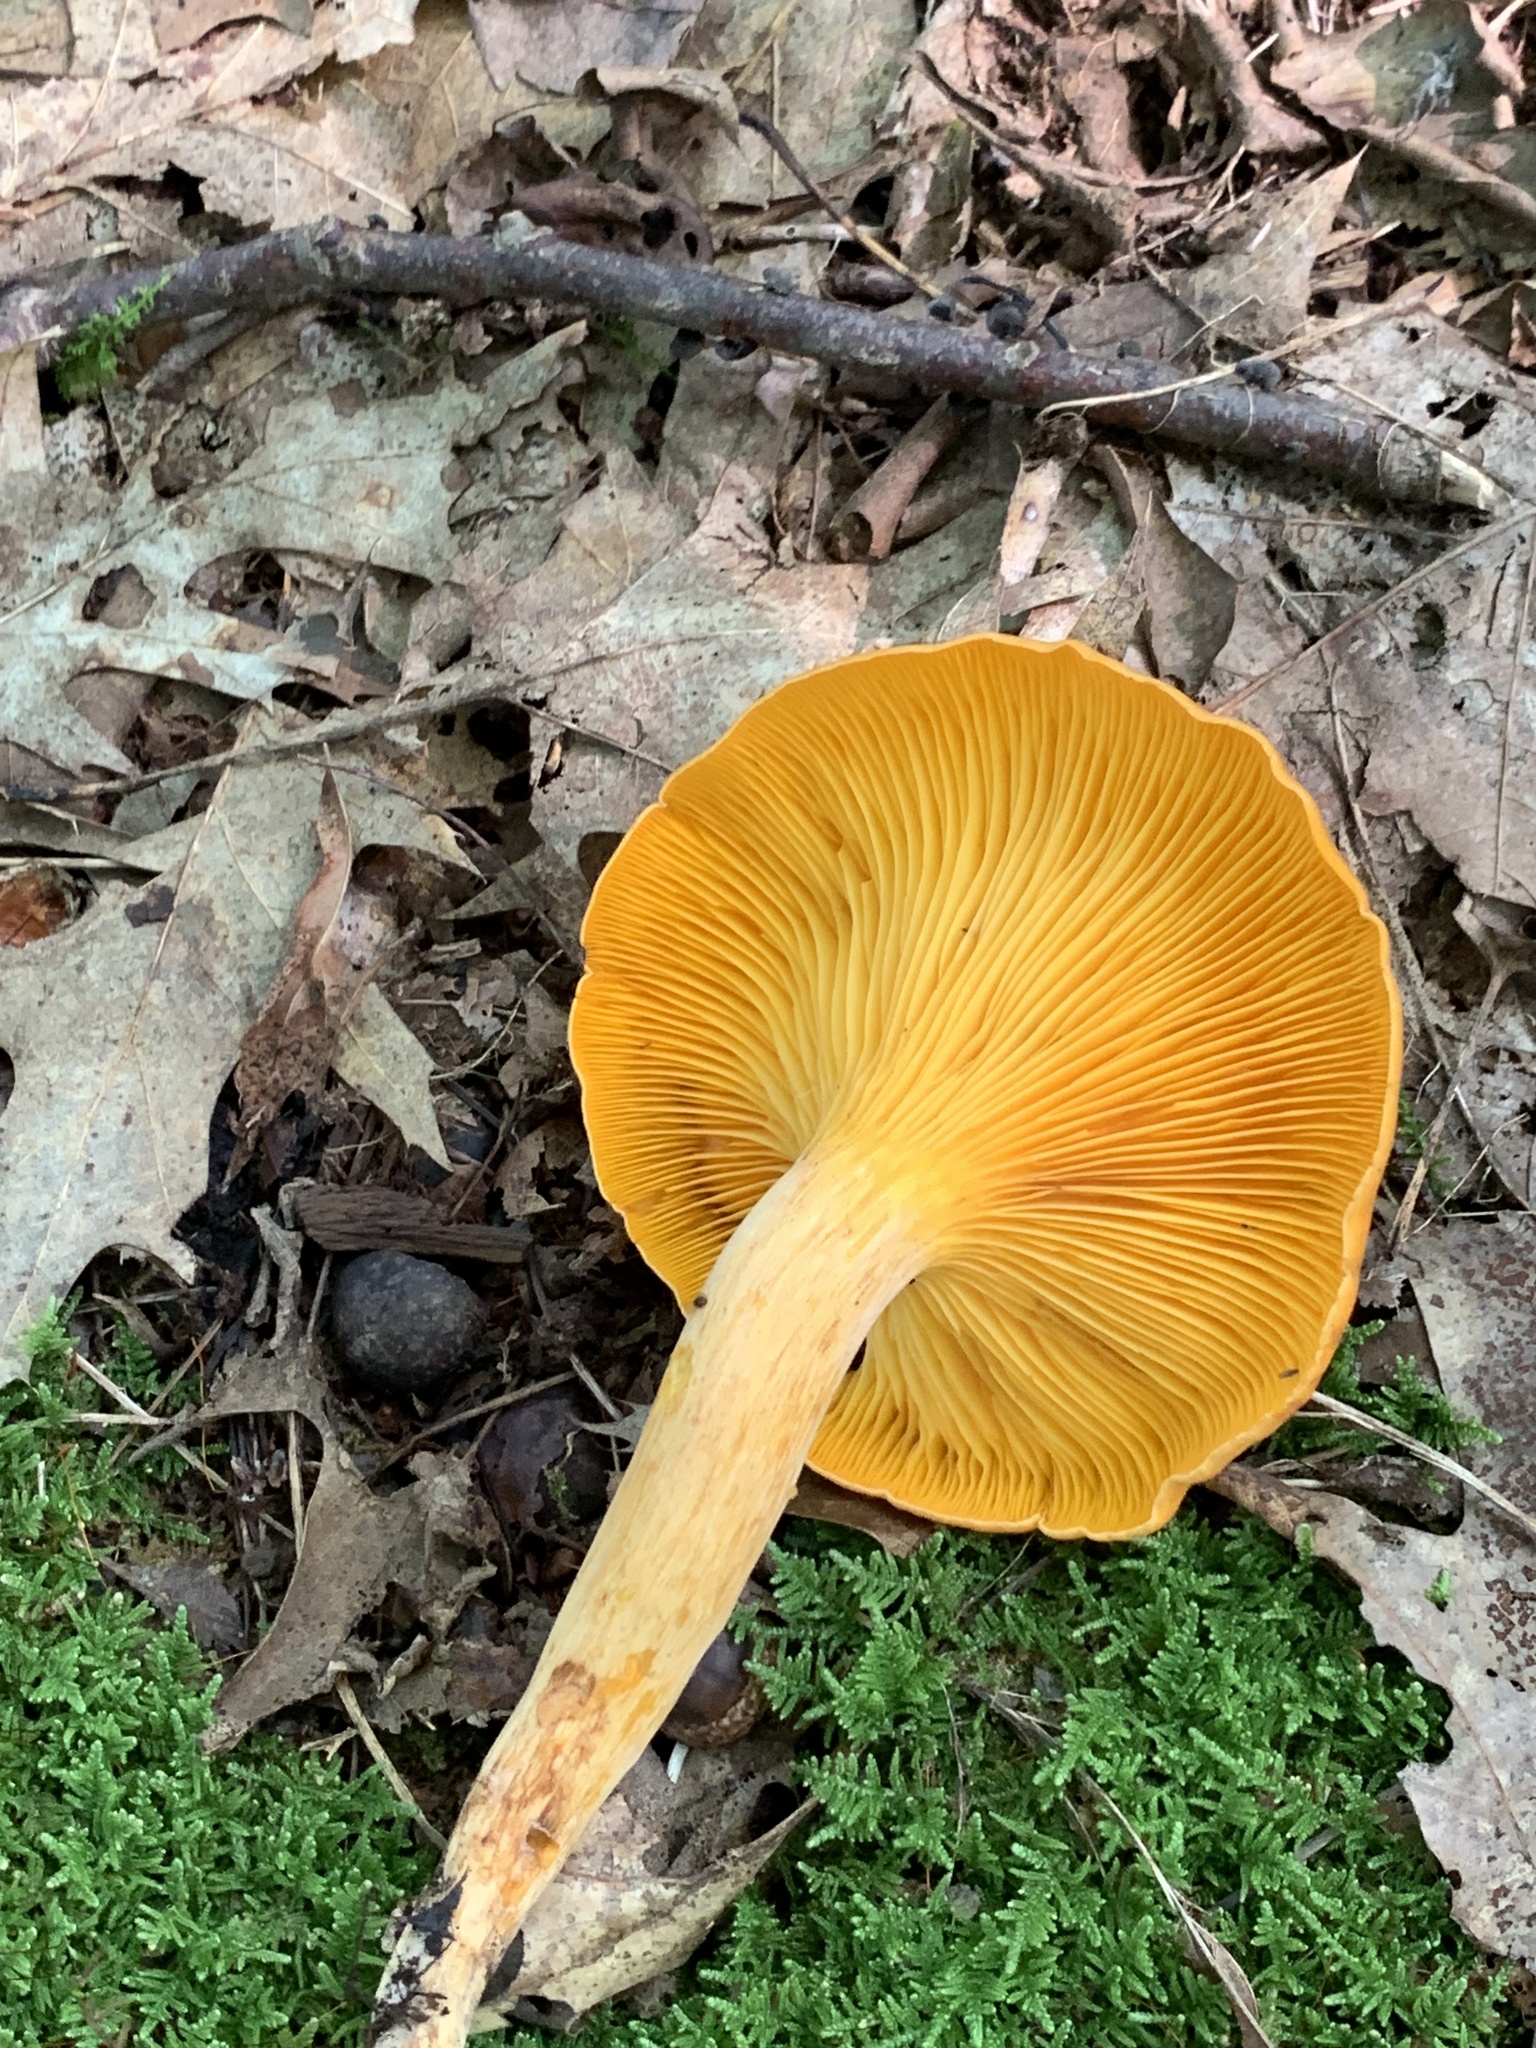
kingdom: Fungi
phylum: Basidiomycota
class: Agaricomycetes
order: Agaricales
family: Omphalotaceae
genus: Omphalotus
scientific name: Omphalotus illudens
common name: Jack o lantern
